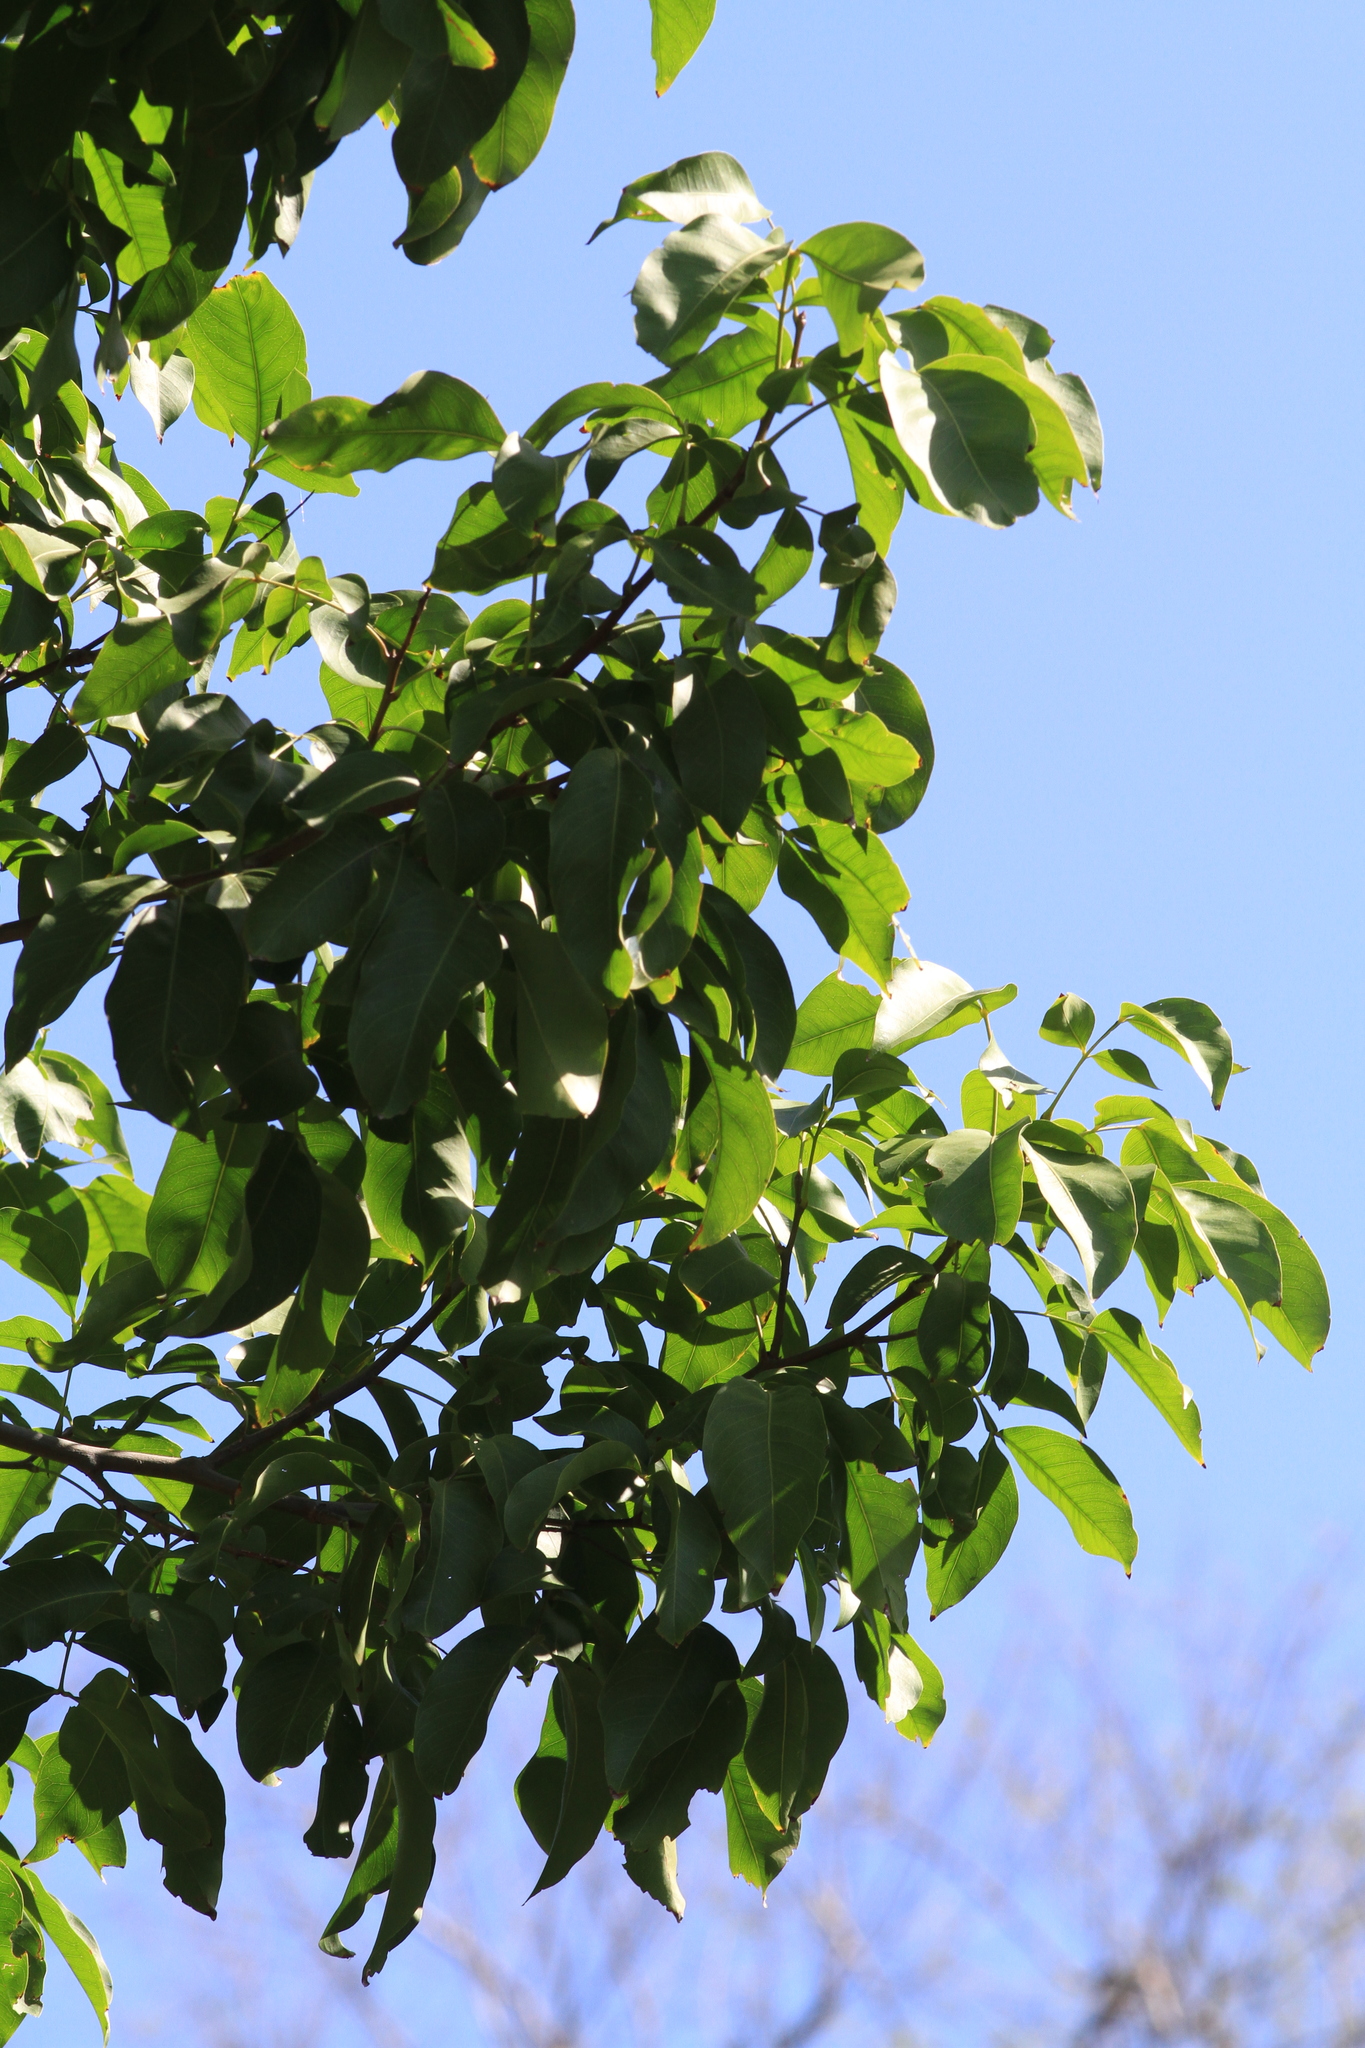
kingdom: Plantae
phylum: Tracheophyta
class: Magnoliopsida
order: Sapindales
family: Sapindaceae
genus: Melicoccus
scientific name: Melicoccus bijugatus
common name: Spanish lime
